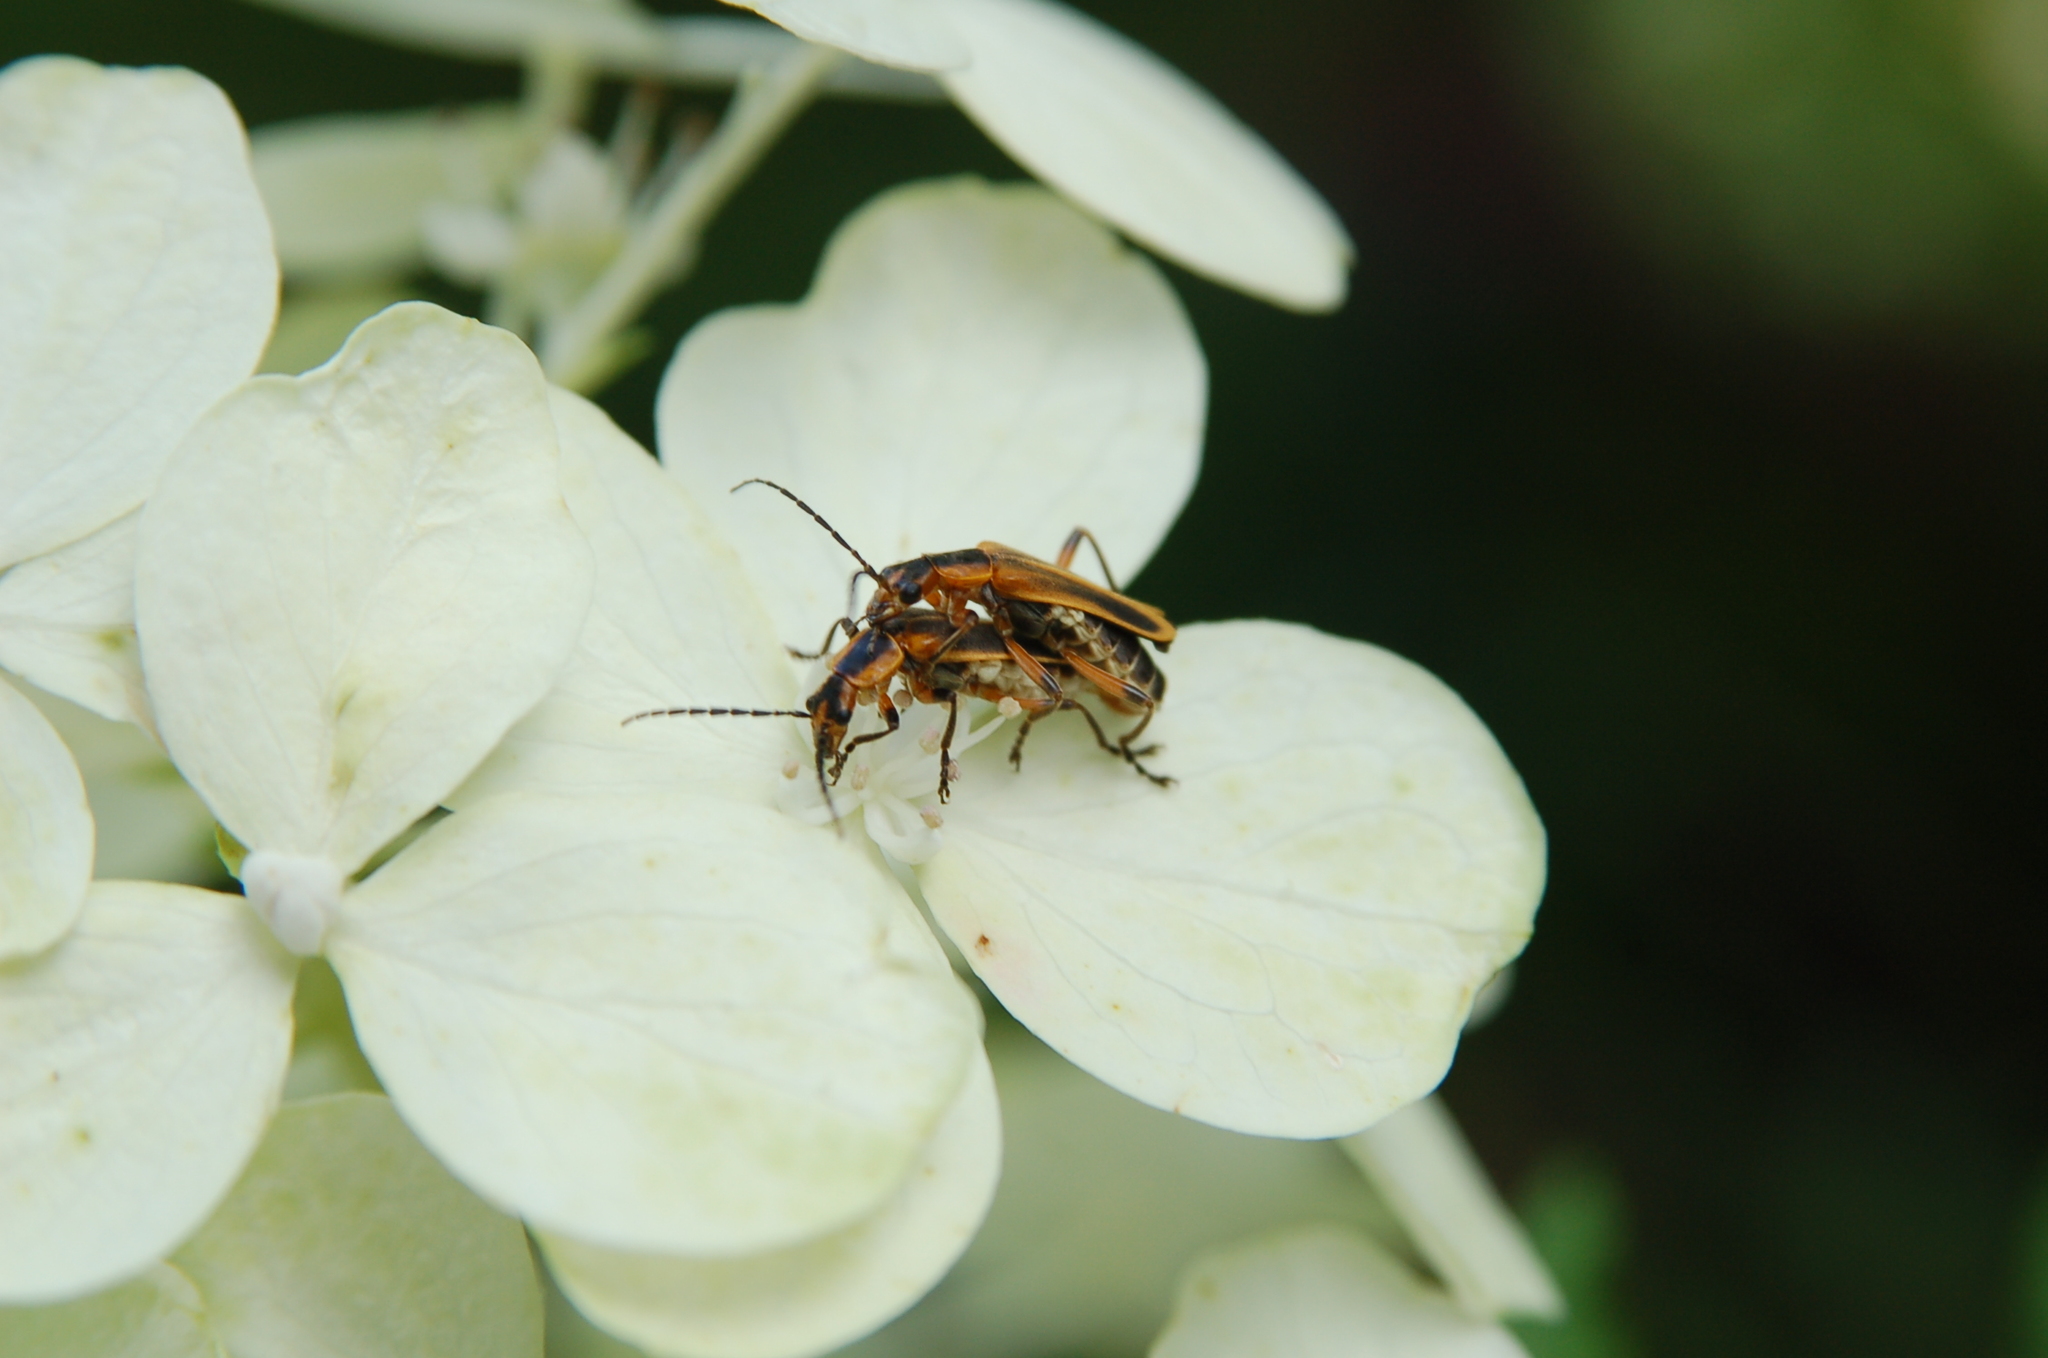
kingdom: Animalia
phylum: Arthropoda
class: Insecta
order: Coleoptera
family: Cantharidae
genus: Chauliognathus
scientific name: Chauliognathus marginatus
